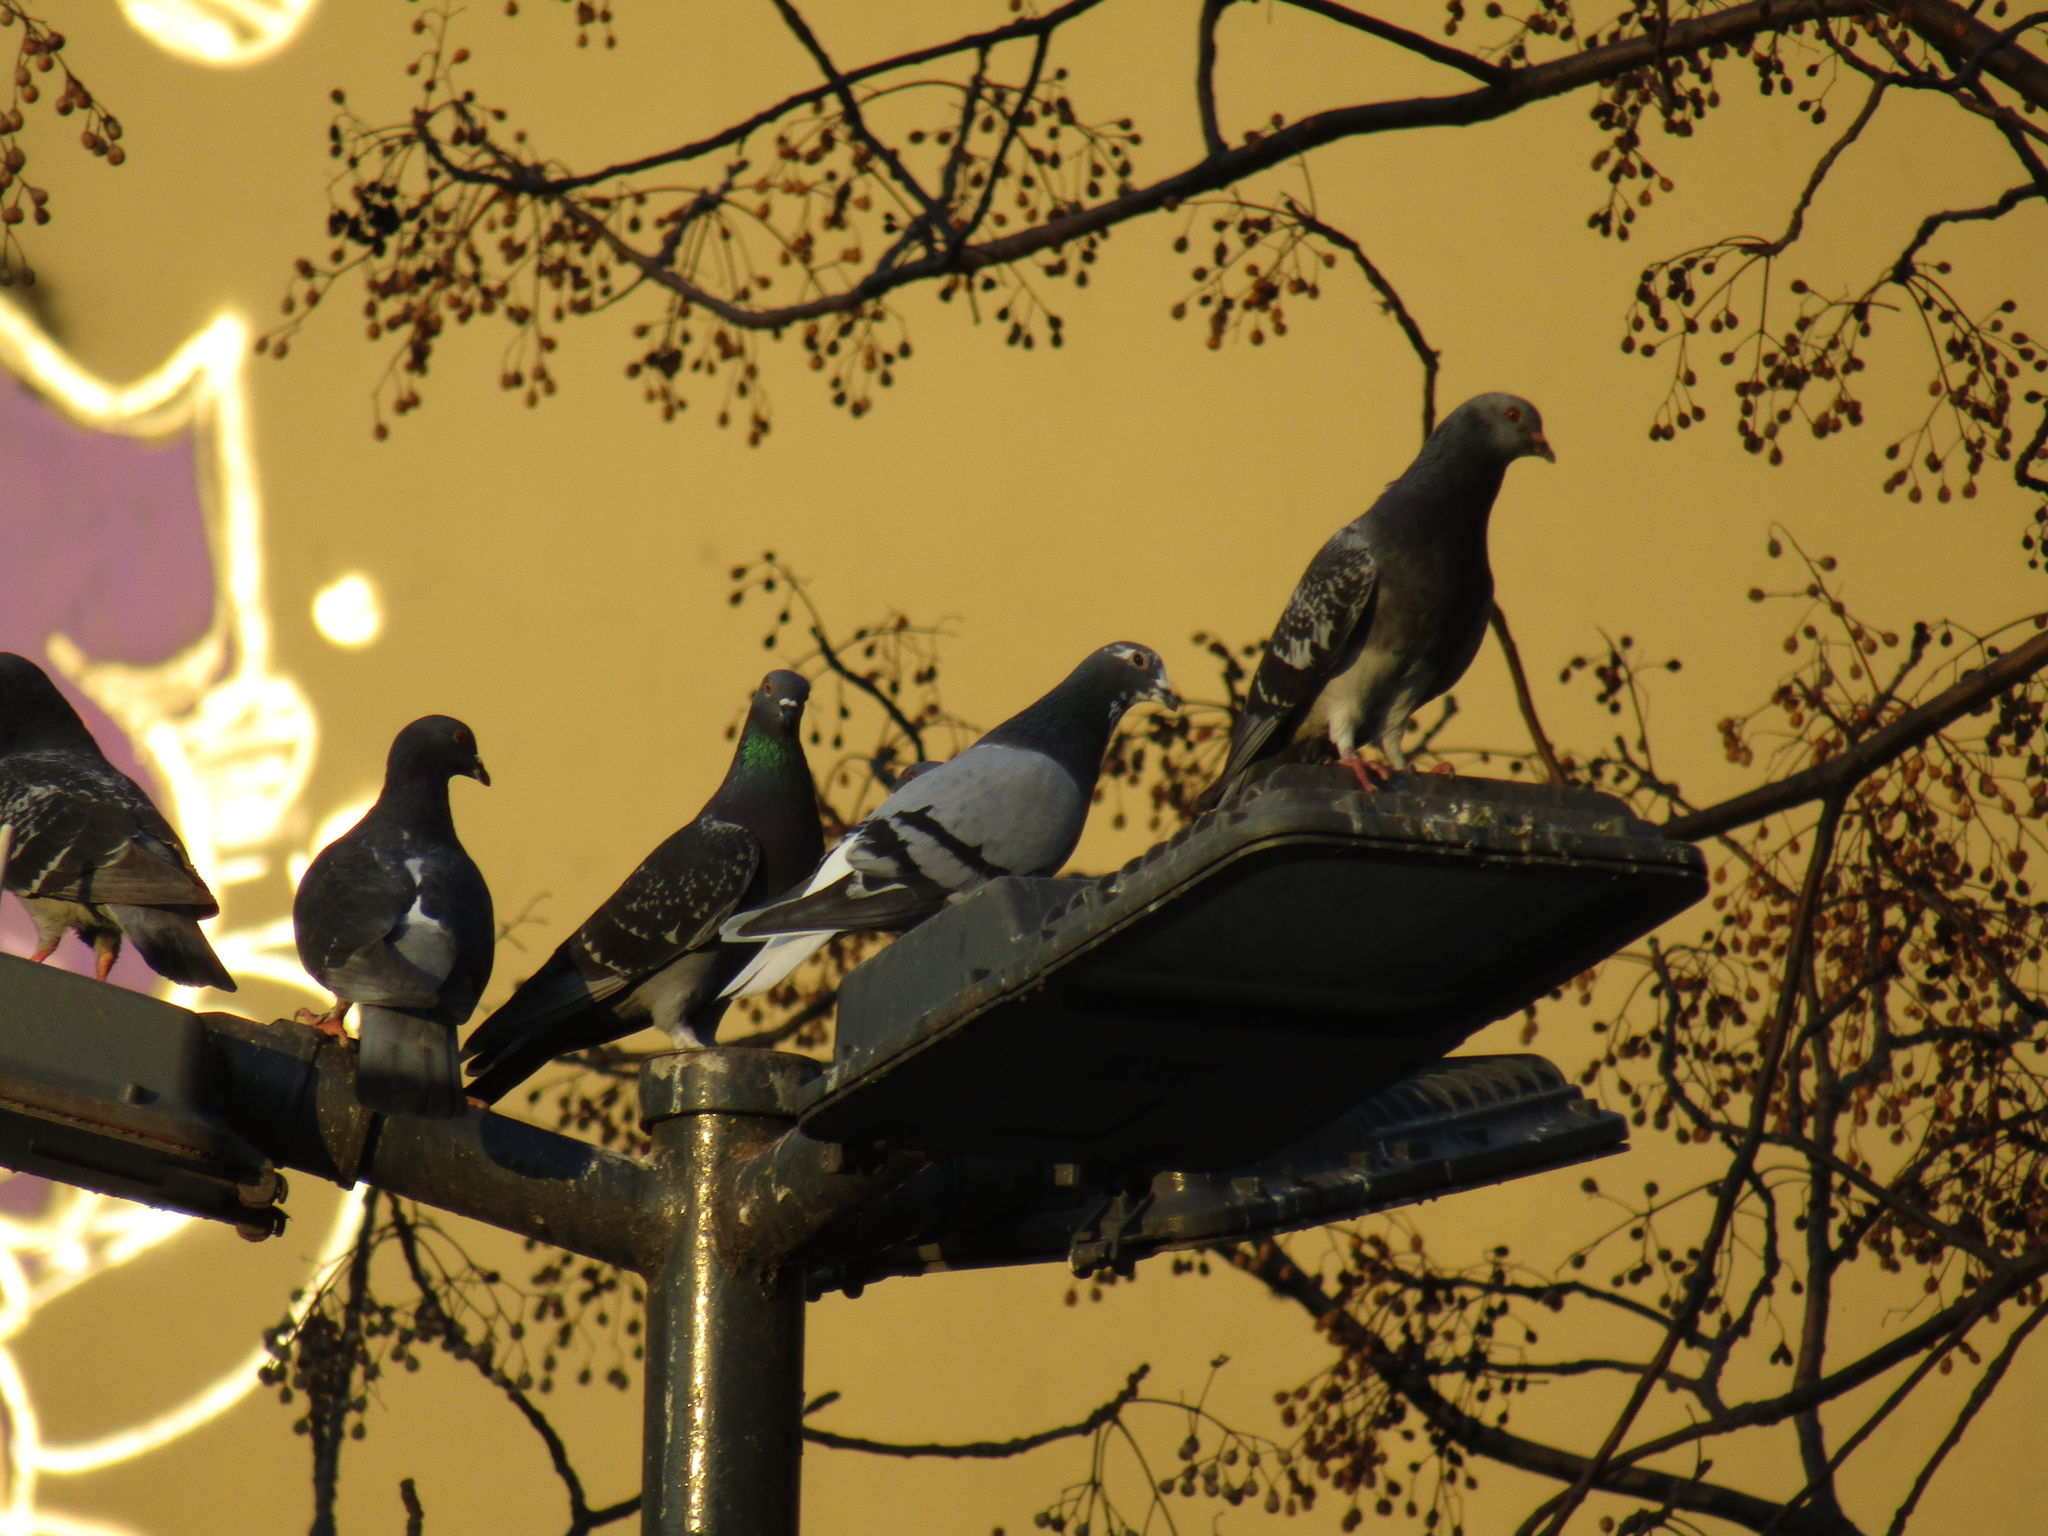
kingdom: Animalia
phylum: Chordata
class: Aves
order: Columbiformes
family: Columbidae
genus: Columba
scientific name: Columba livia
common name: Rock pigeon
